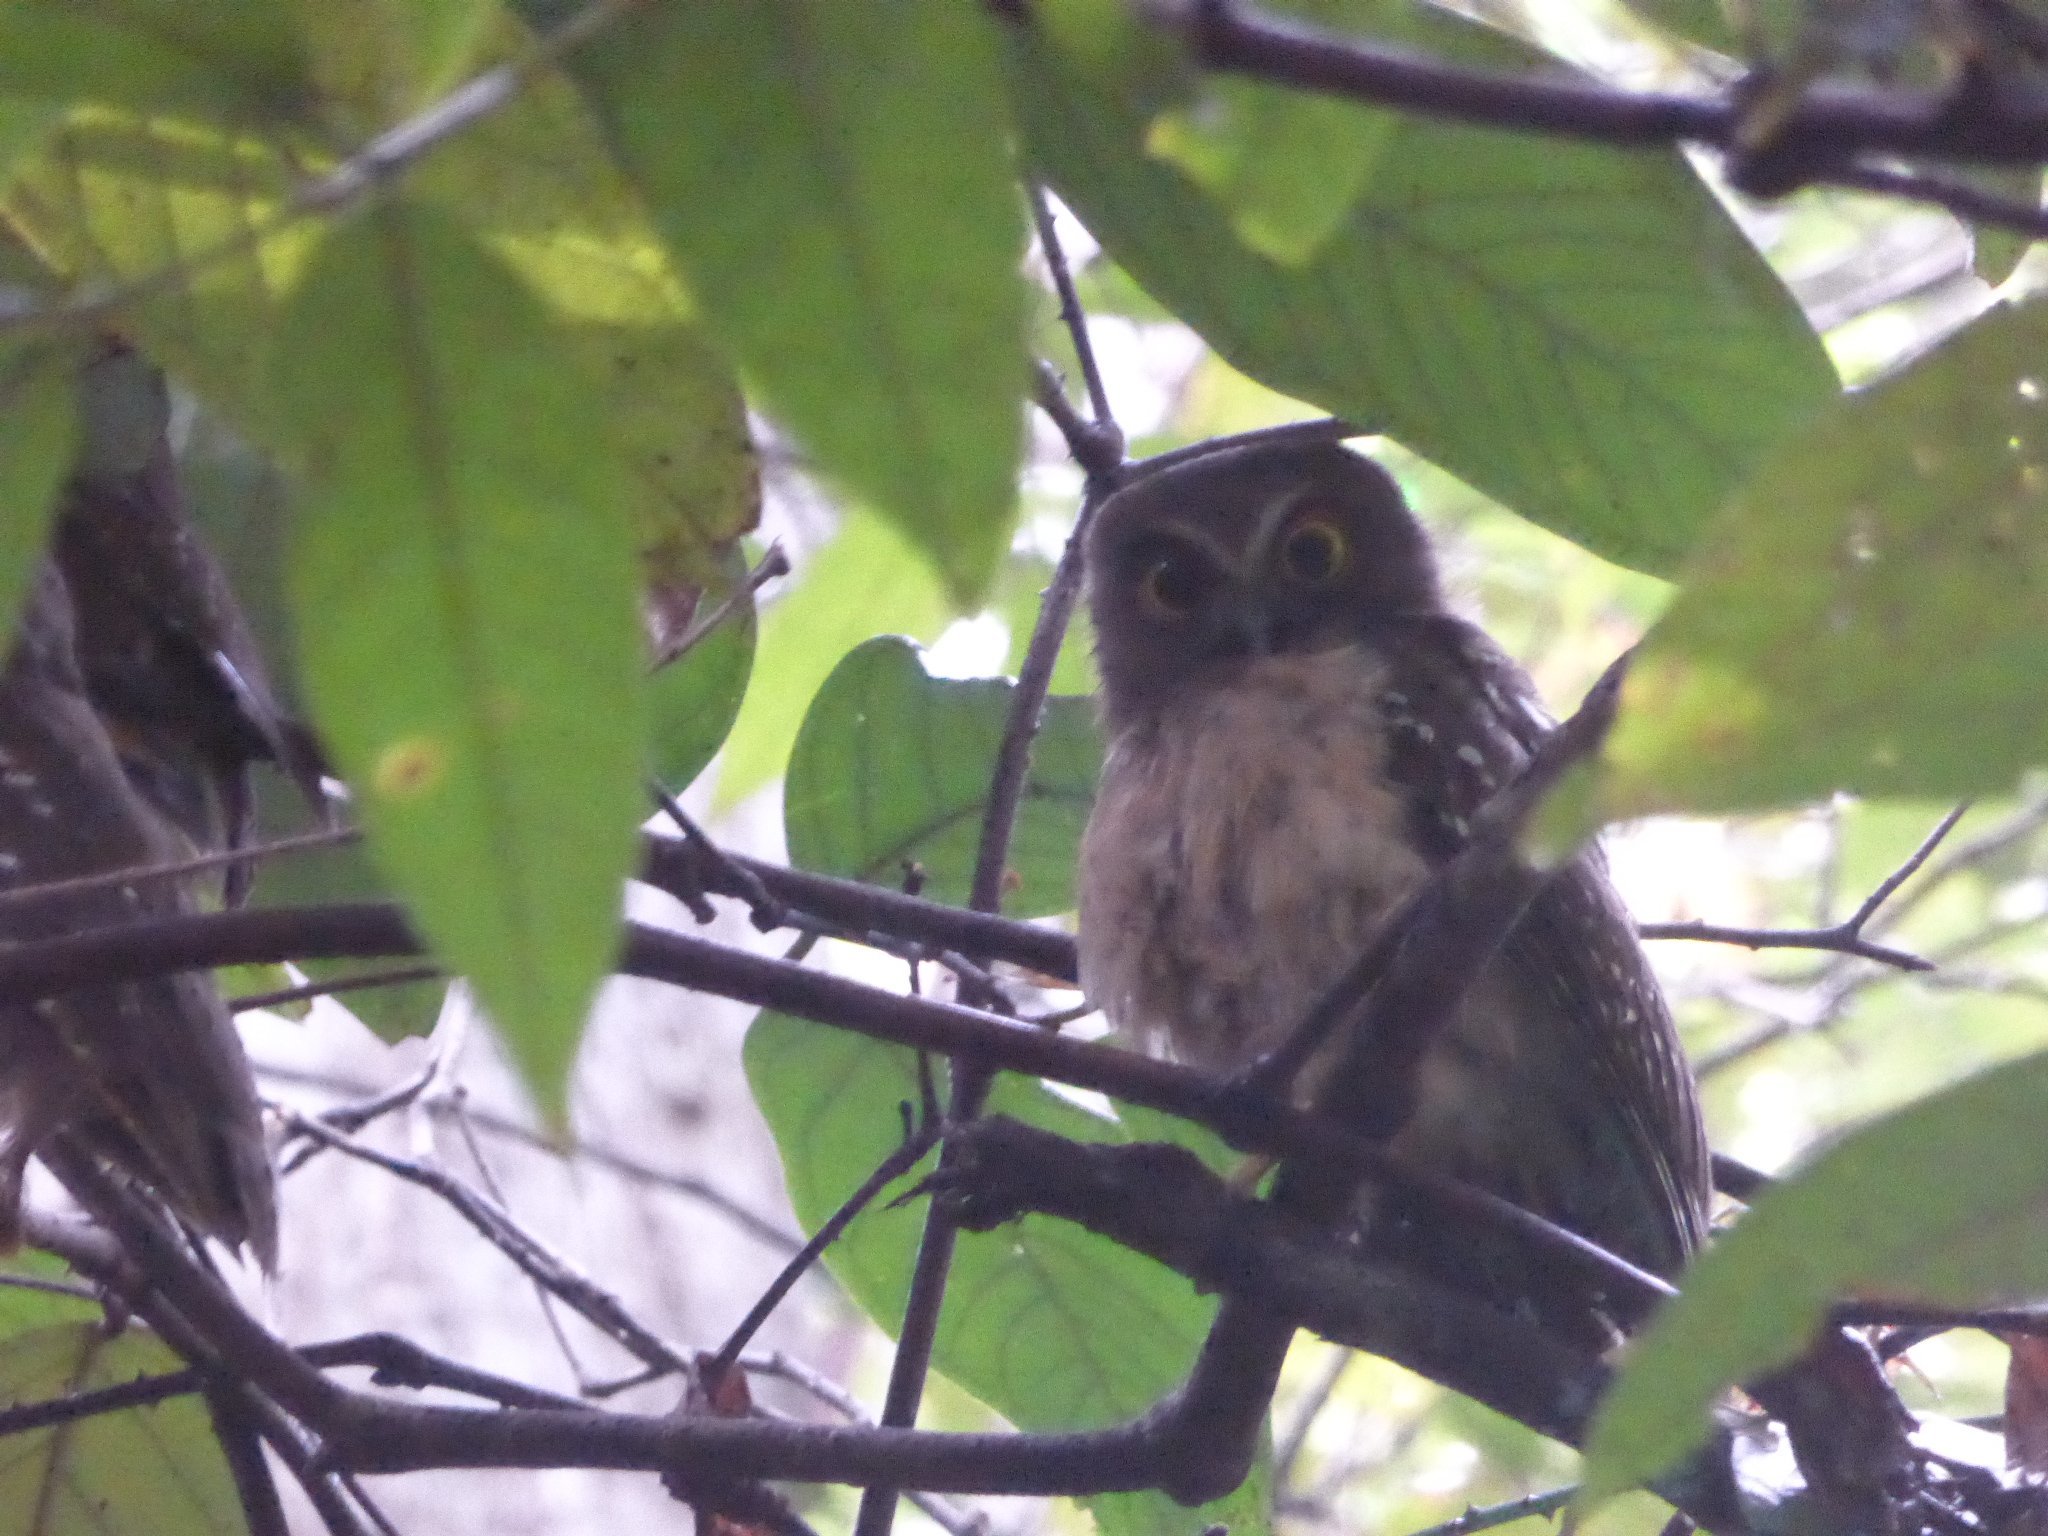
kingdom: Animalia
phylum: Chordata
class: Aves
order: Strigiformes
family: Strigidae
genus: Ninox
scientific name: Ninox ochracea
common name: Ochre-bellied boobook
